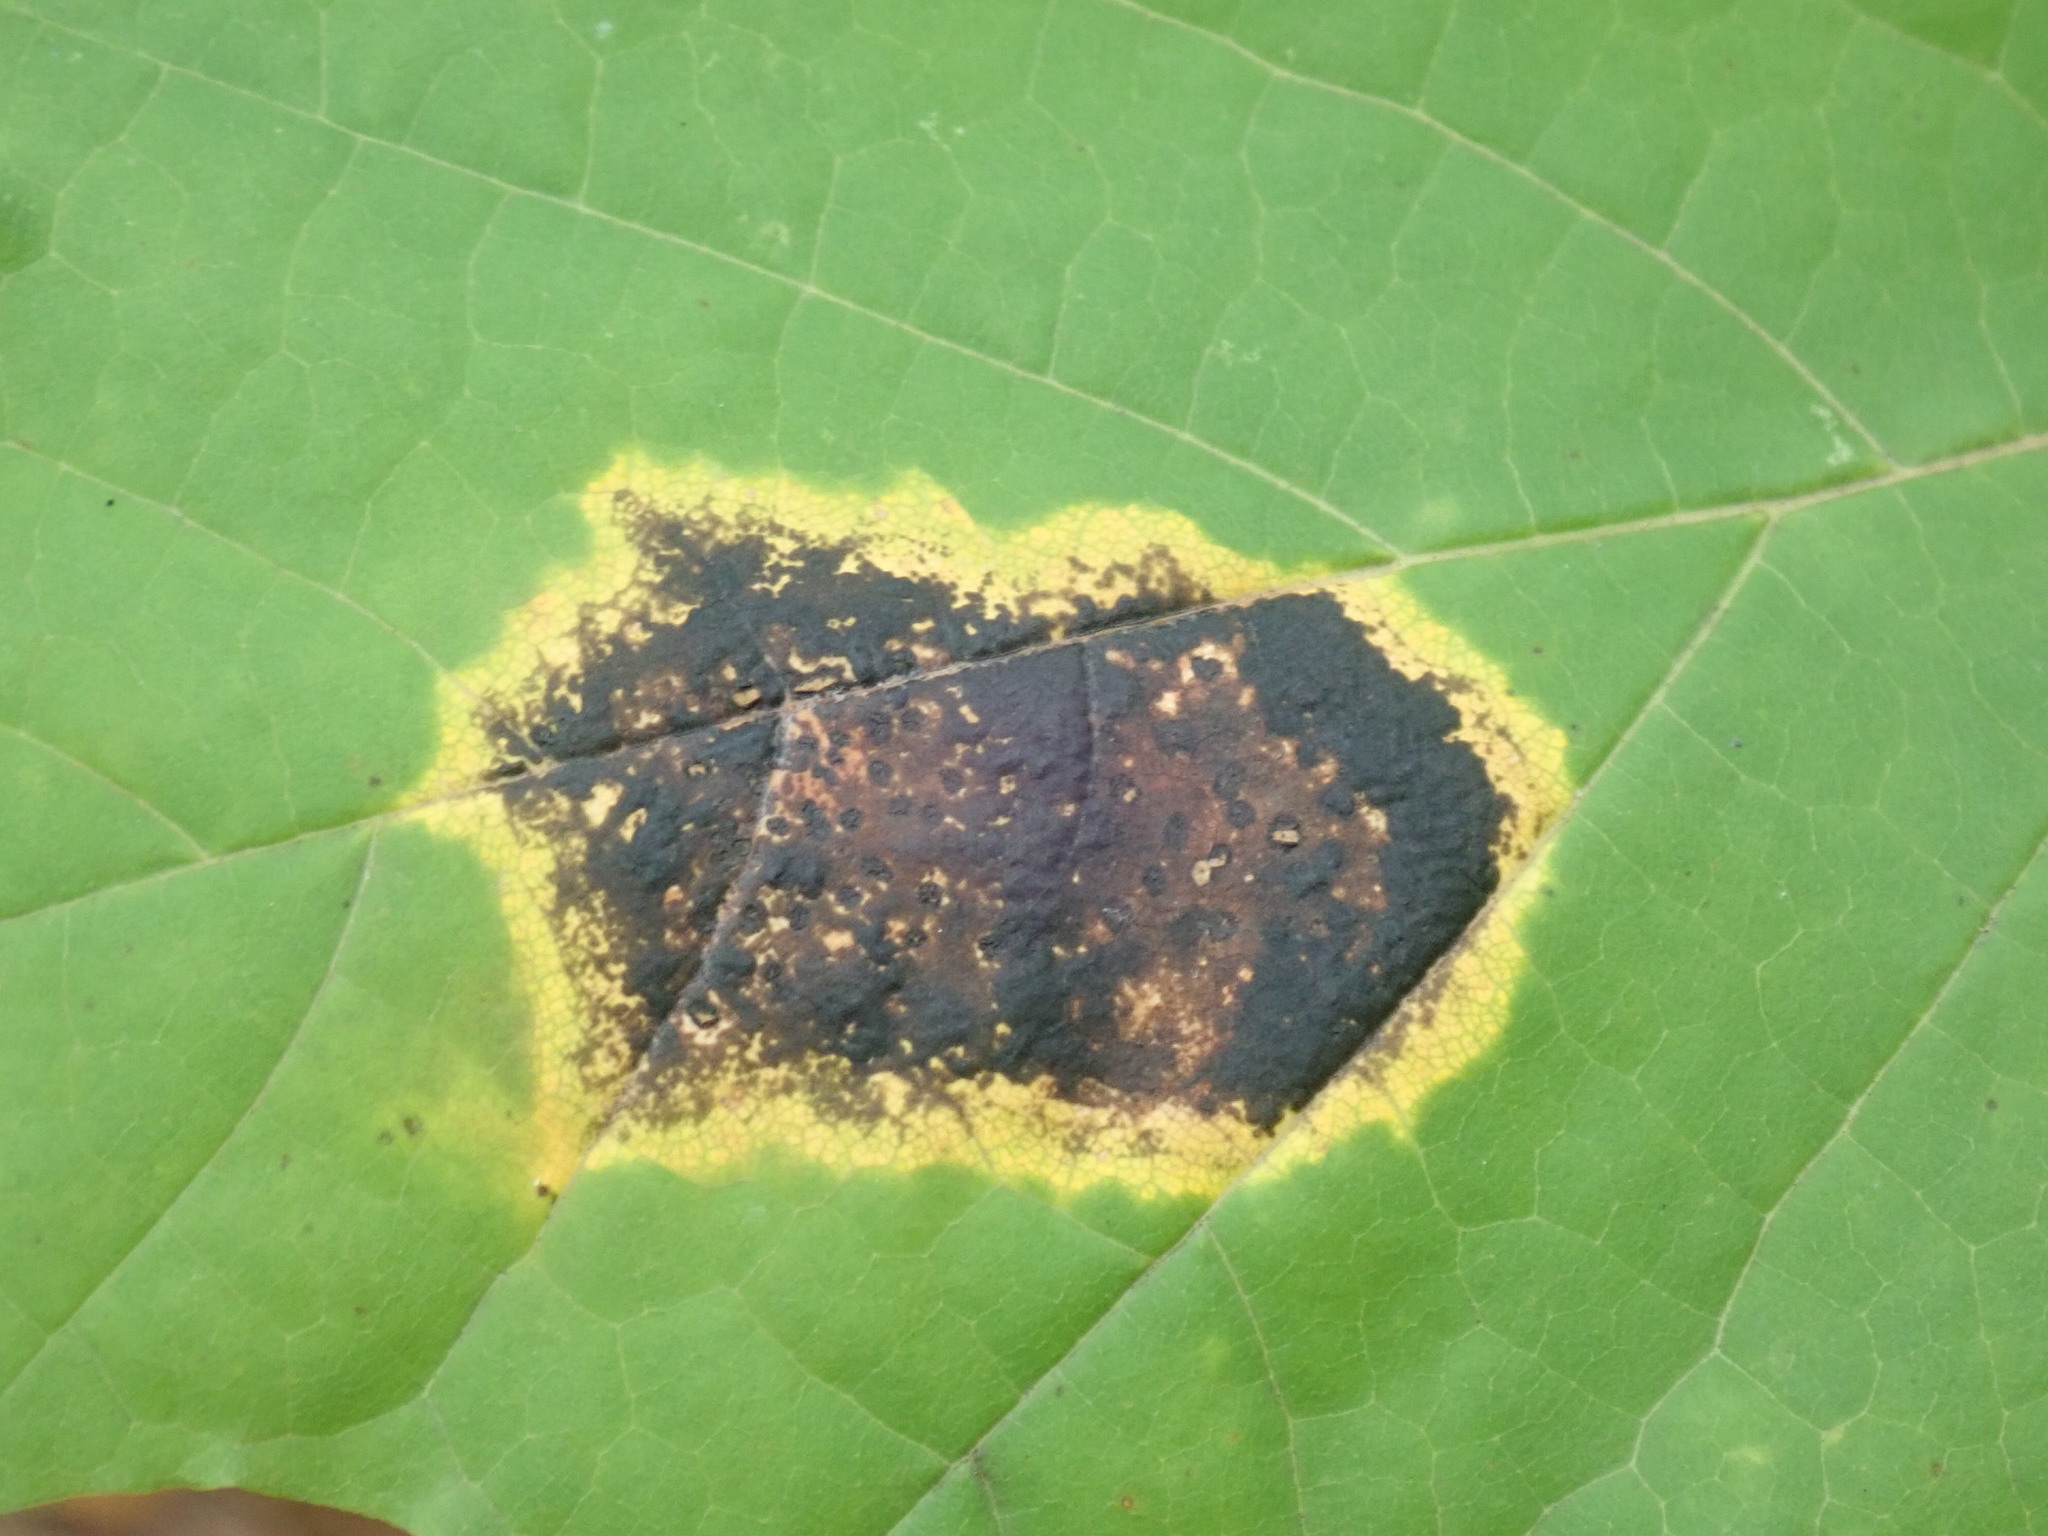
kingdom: Fungi
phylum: Ascomycota
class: Leotiomycetes
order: Rhytismatales
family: Rhytismataceae
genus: Rhytisma
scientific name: Rhytisma acerinum
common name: European tar spot
